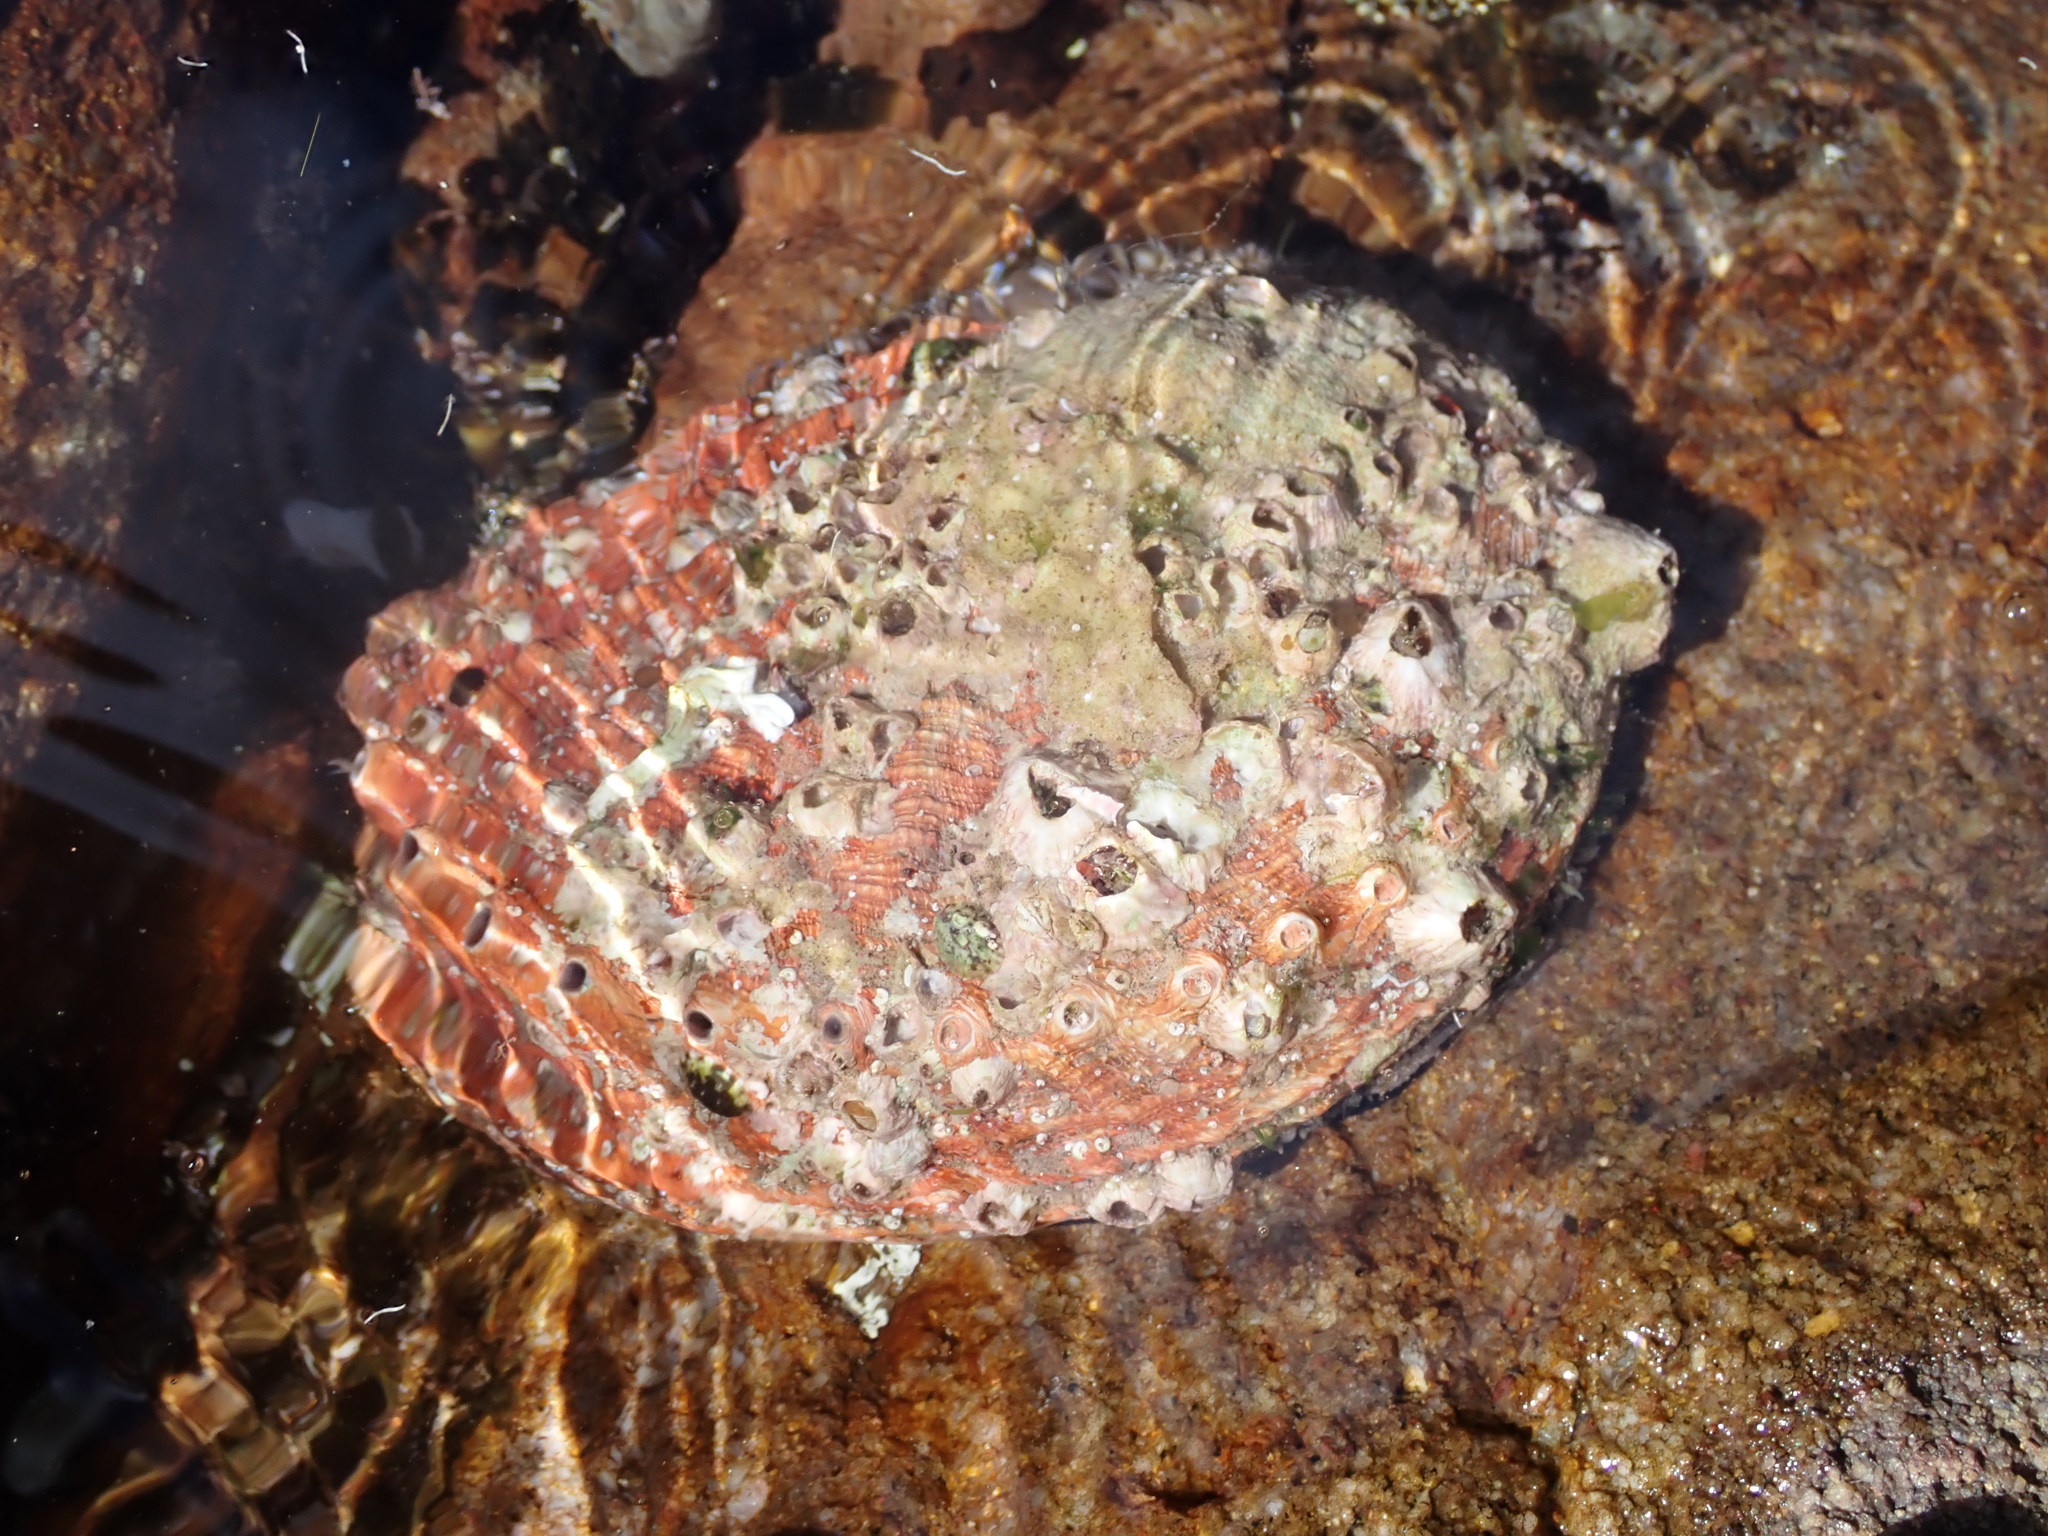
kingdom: Animalia
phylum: Mollusca
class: Gastropoda
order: Lepetellida
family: Haliotidae
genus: Haliotis
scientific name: Haliotis rubra
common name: Blacklip abalone
